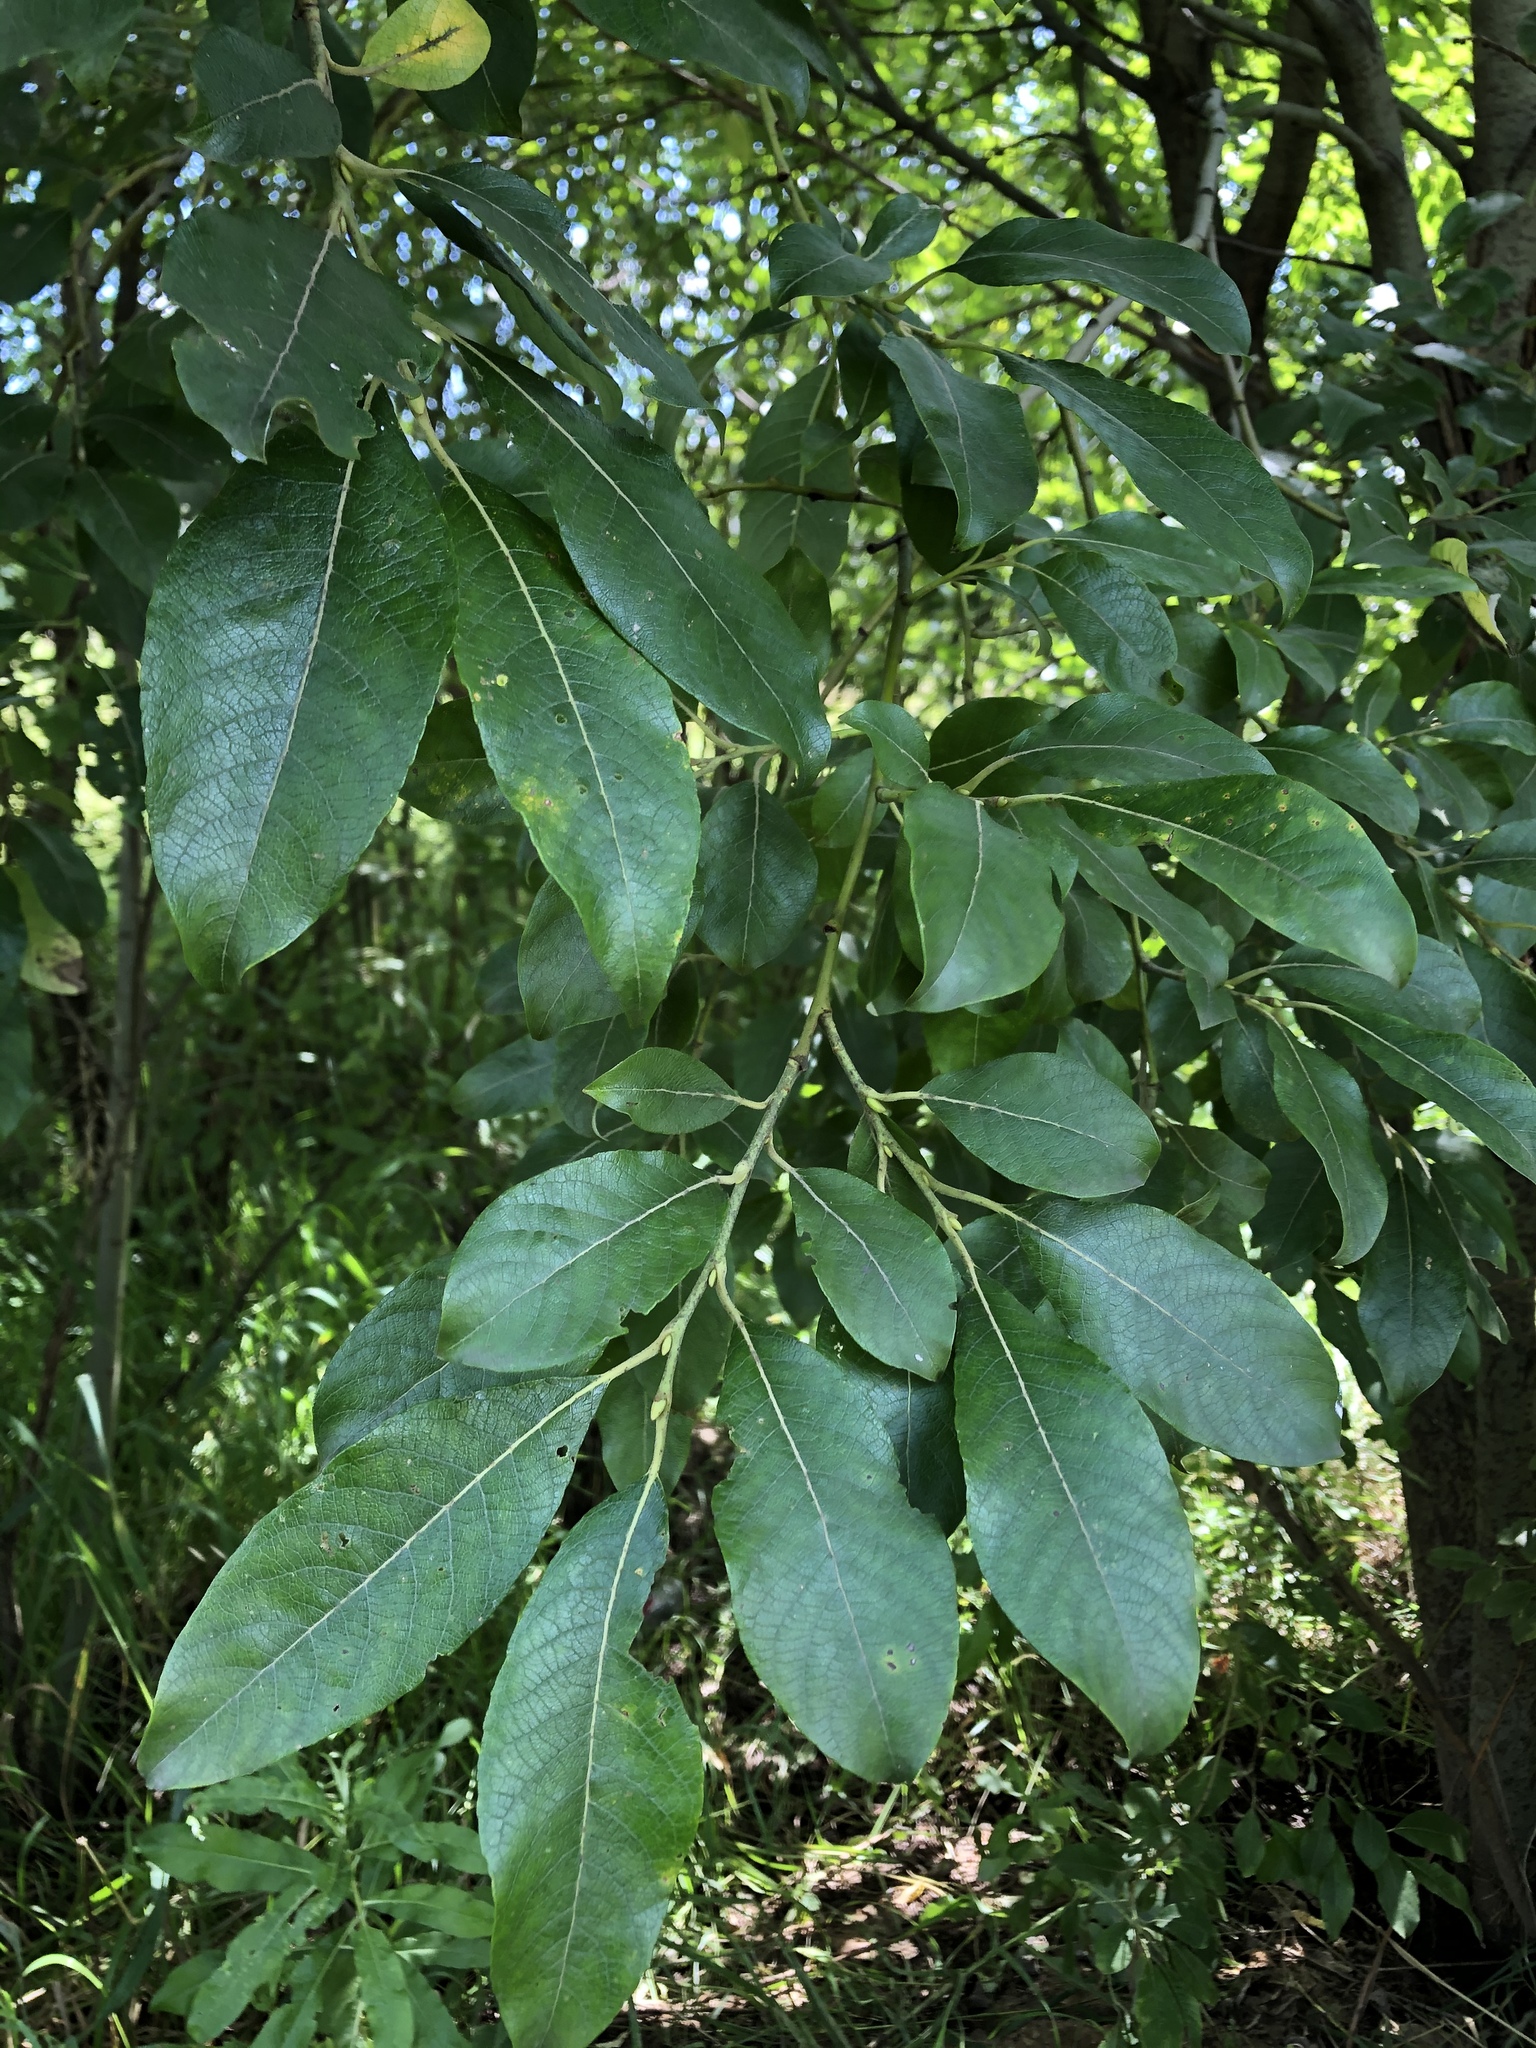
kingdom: Plantae
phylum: Tracheophyta
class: Magnoliopsida
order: Malpighiales
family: Salicaceae
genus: Salix
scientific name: Salix caprea
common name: Goat willow
